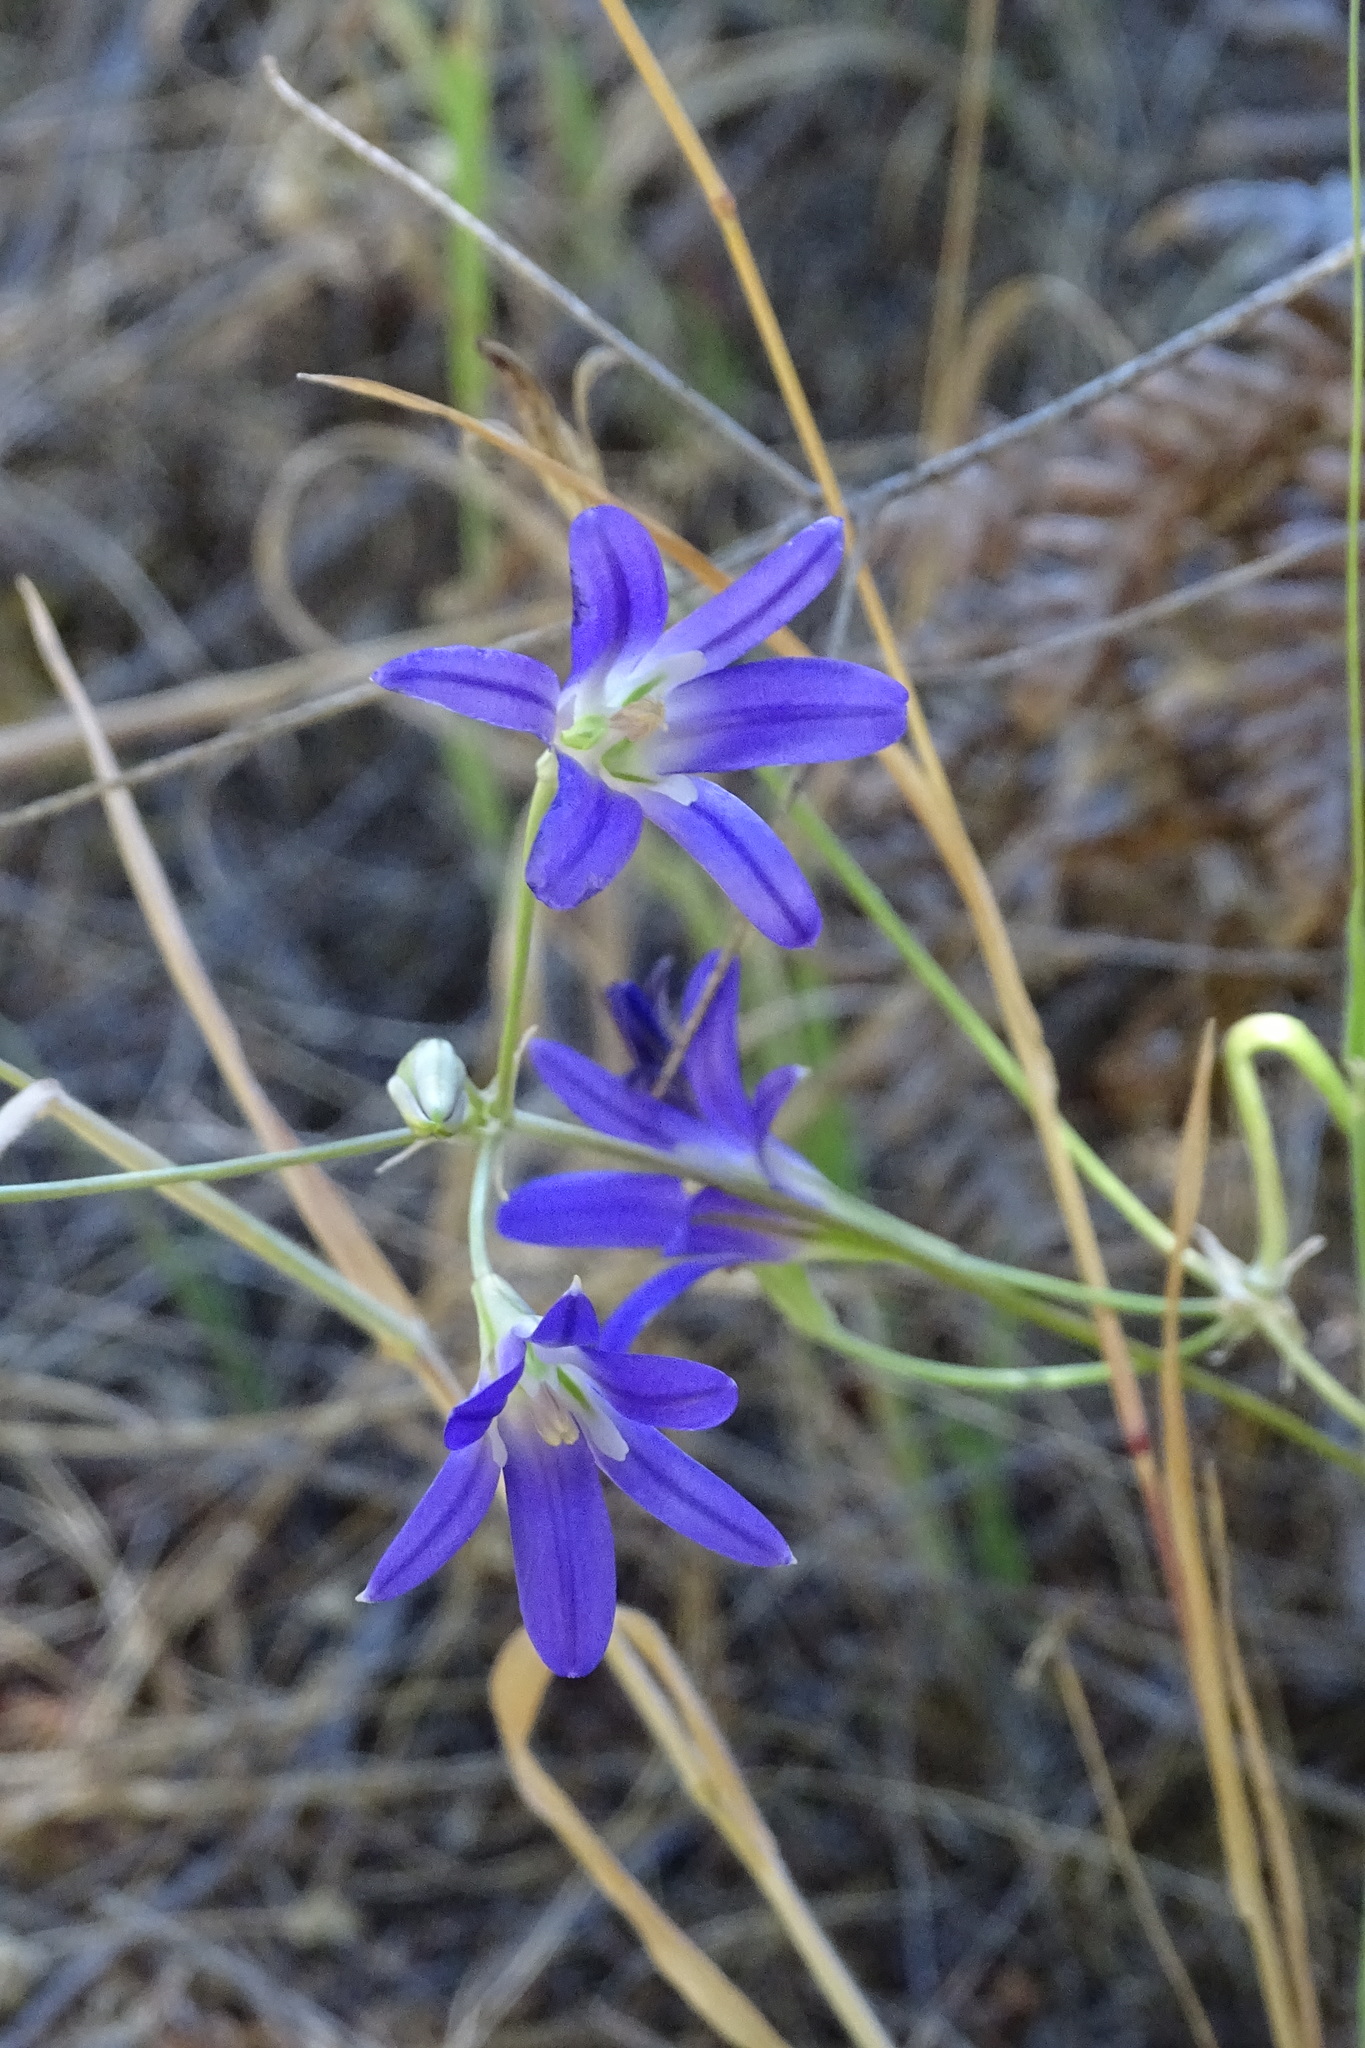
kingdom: Plantae
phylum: Tracheophyta
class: Liliopsida
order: Asparagales
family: Asparagaceae
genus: Brodiaea
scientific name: Brodiaea elegans
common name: Elegant cluster-lily
